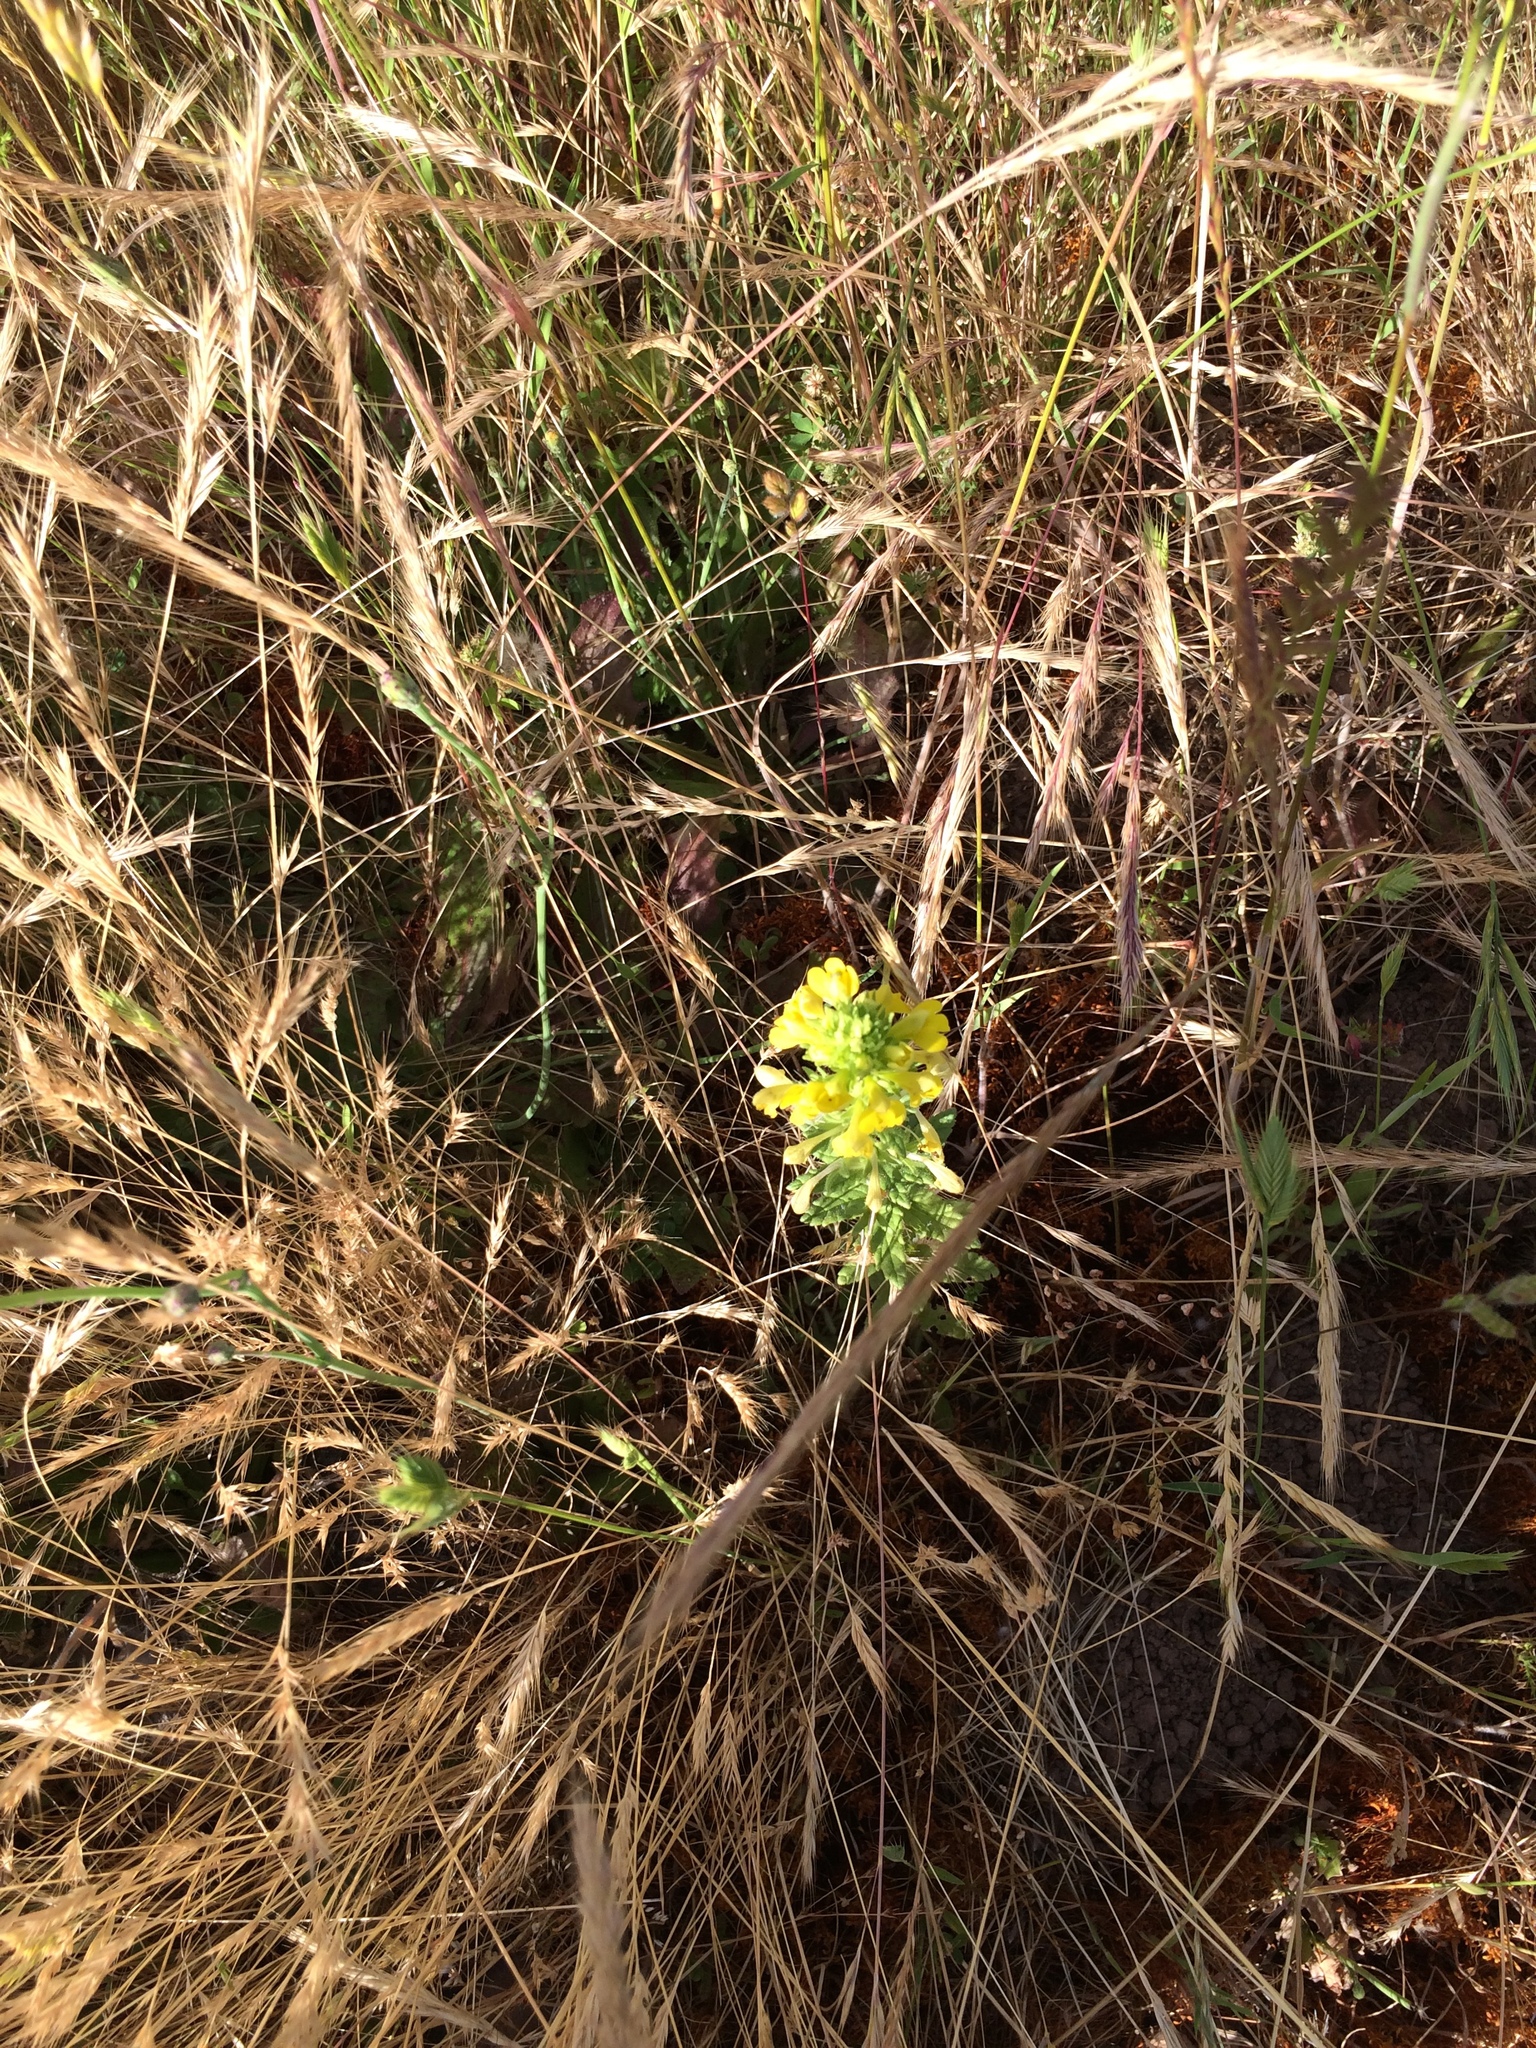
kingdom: Plantae
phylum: Tracheophyta
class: Magnoliopsida
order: Lamiales
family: Orobanchaceae
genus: Bellardia
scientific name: Bellardia viscosa
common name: Sticky parentucellia
